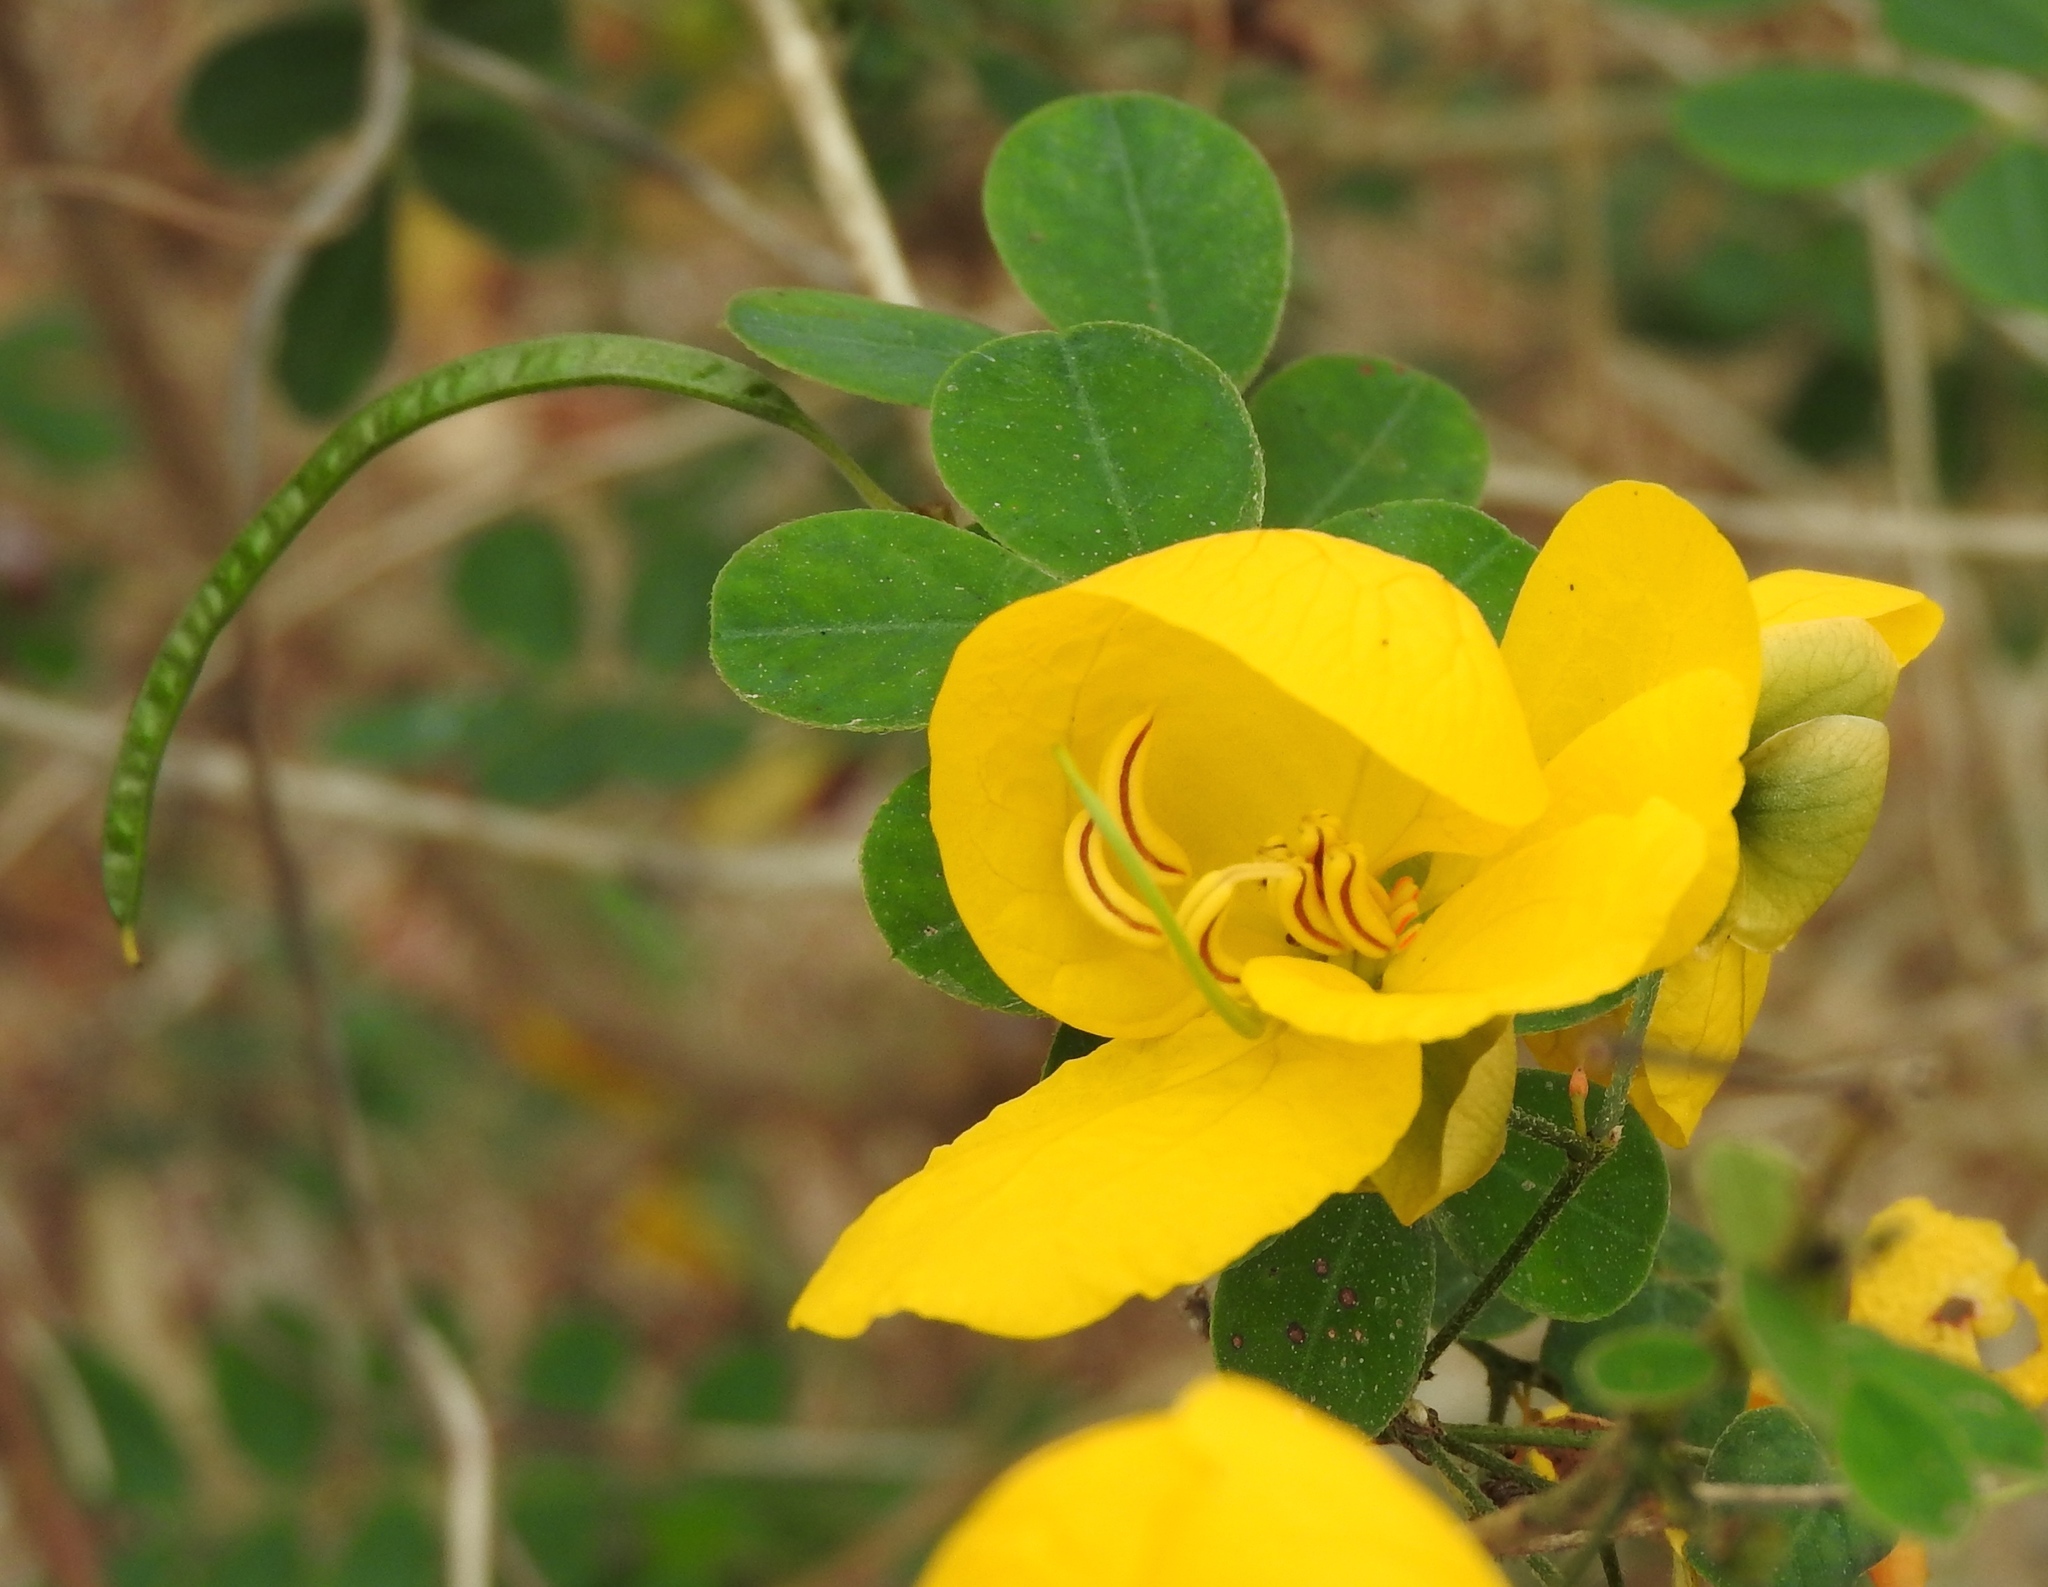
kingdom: Plantae
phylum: Tracheophyta
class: Magnoliopsida
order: Fabales
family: Fabaceae
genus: Senna
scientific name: Senna pallida
